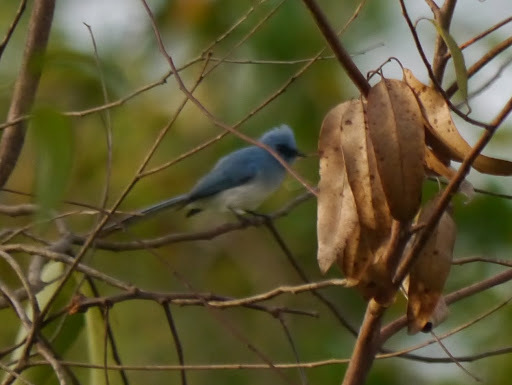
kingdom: Animalia
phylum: Chordata
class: Aves
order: Passeriformes
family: Stenostiridae
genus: Elminia
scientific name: Elminia longicauda
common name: African blue flycatcher
